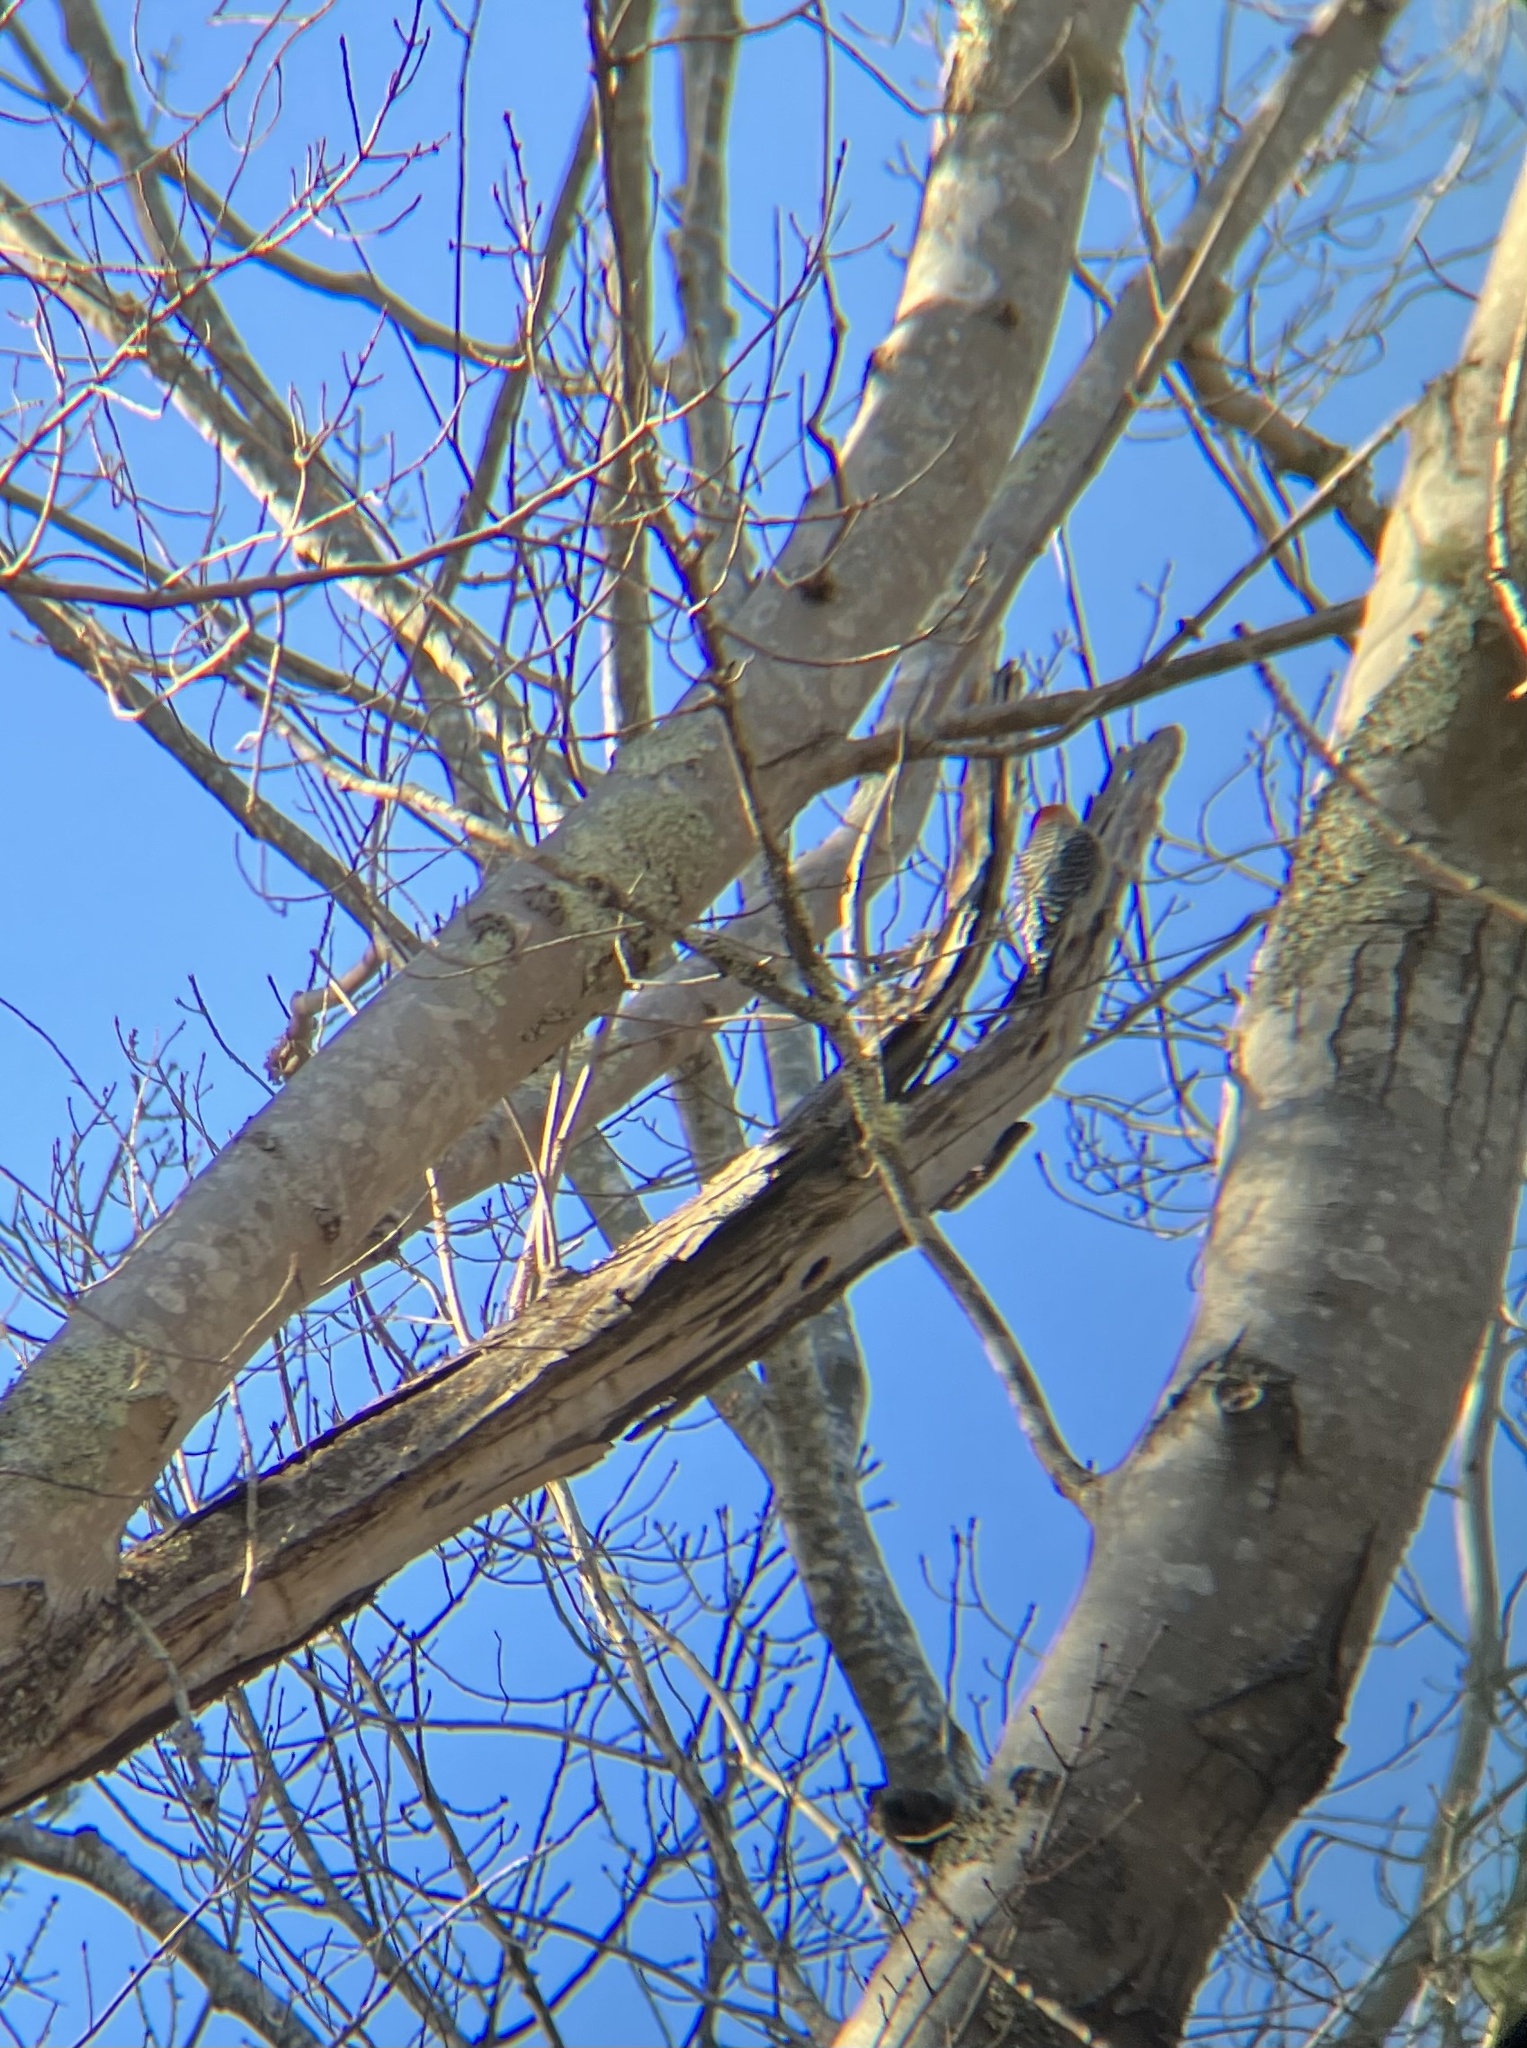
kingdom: Animalia
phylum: Chordata
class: Aves
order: Piciformes
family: Picidae
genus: Melanerpes
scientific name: Melanerpes carolinus
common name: Red-bellied woodpecker
